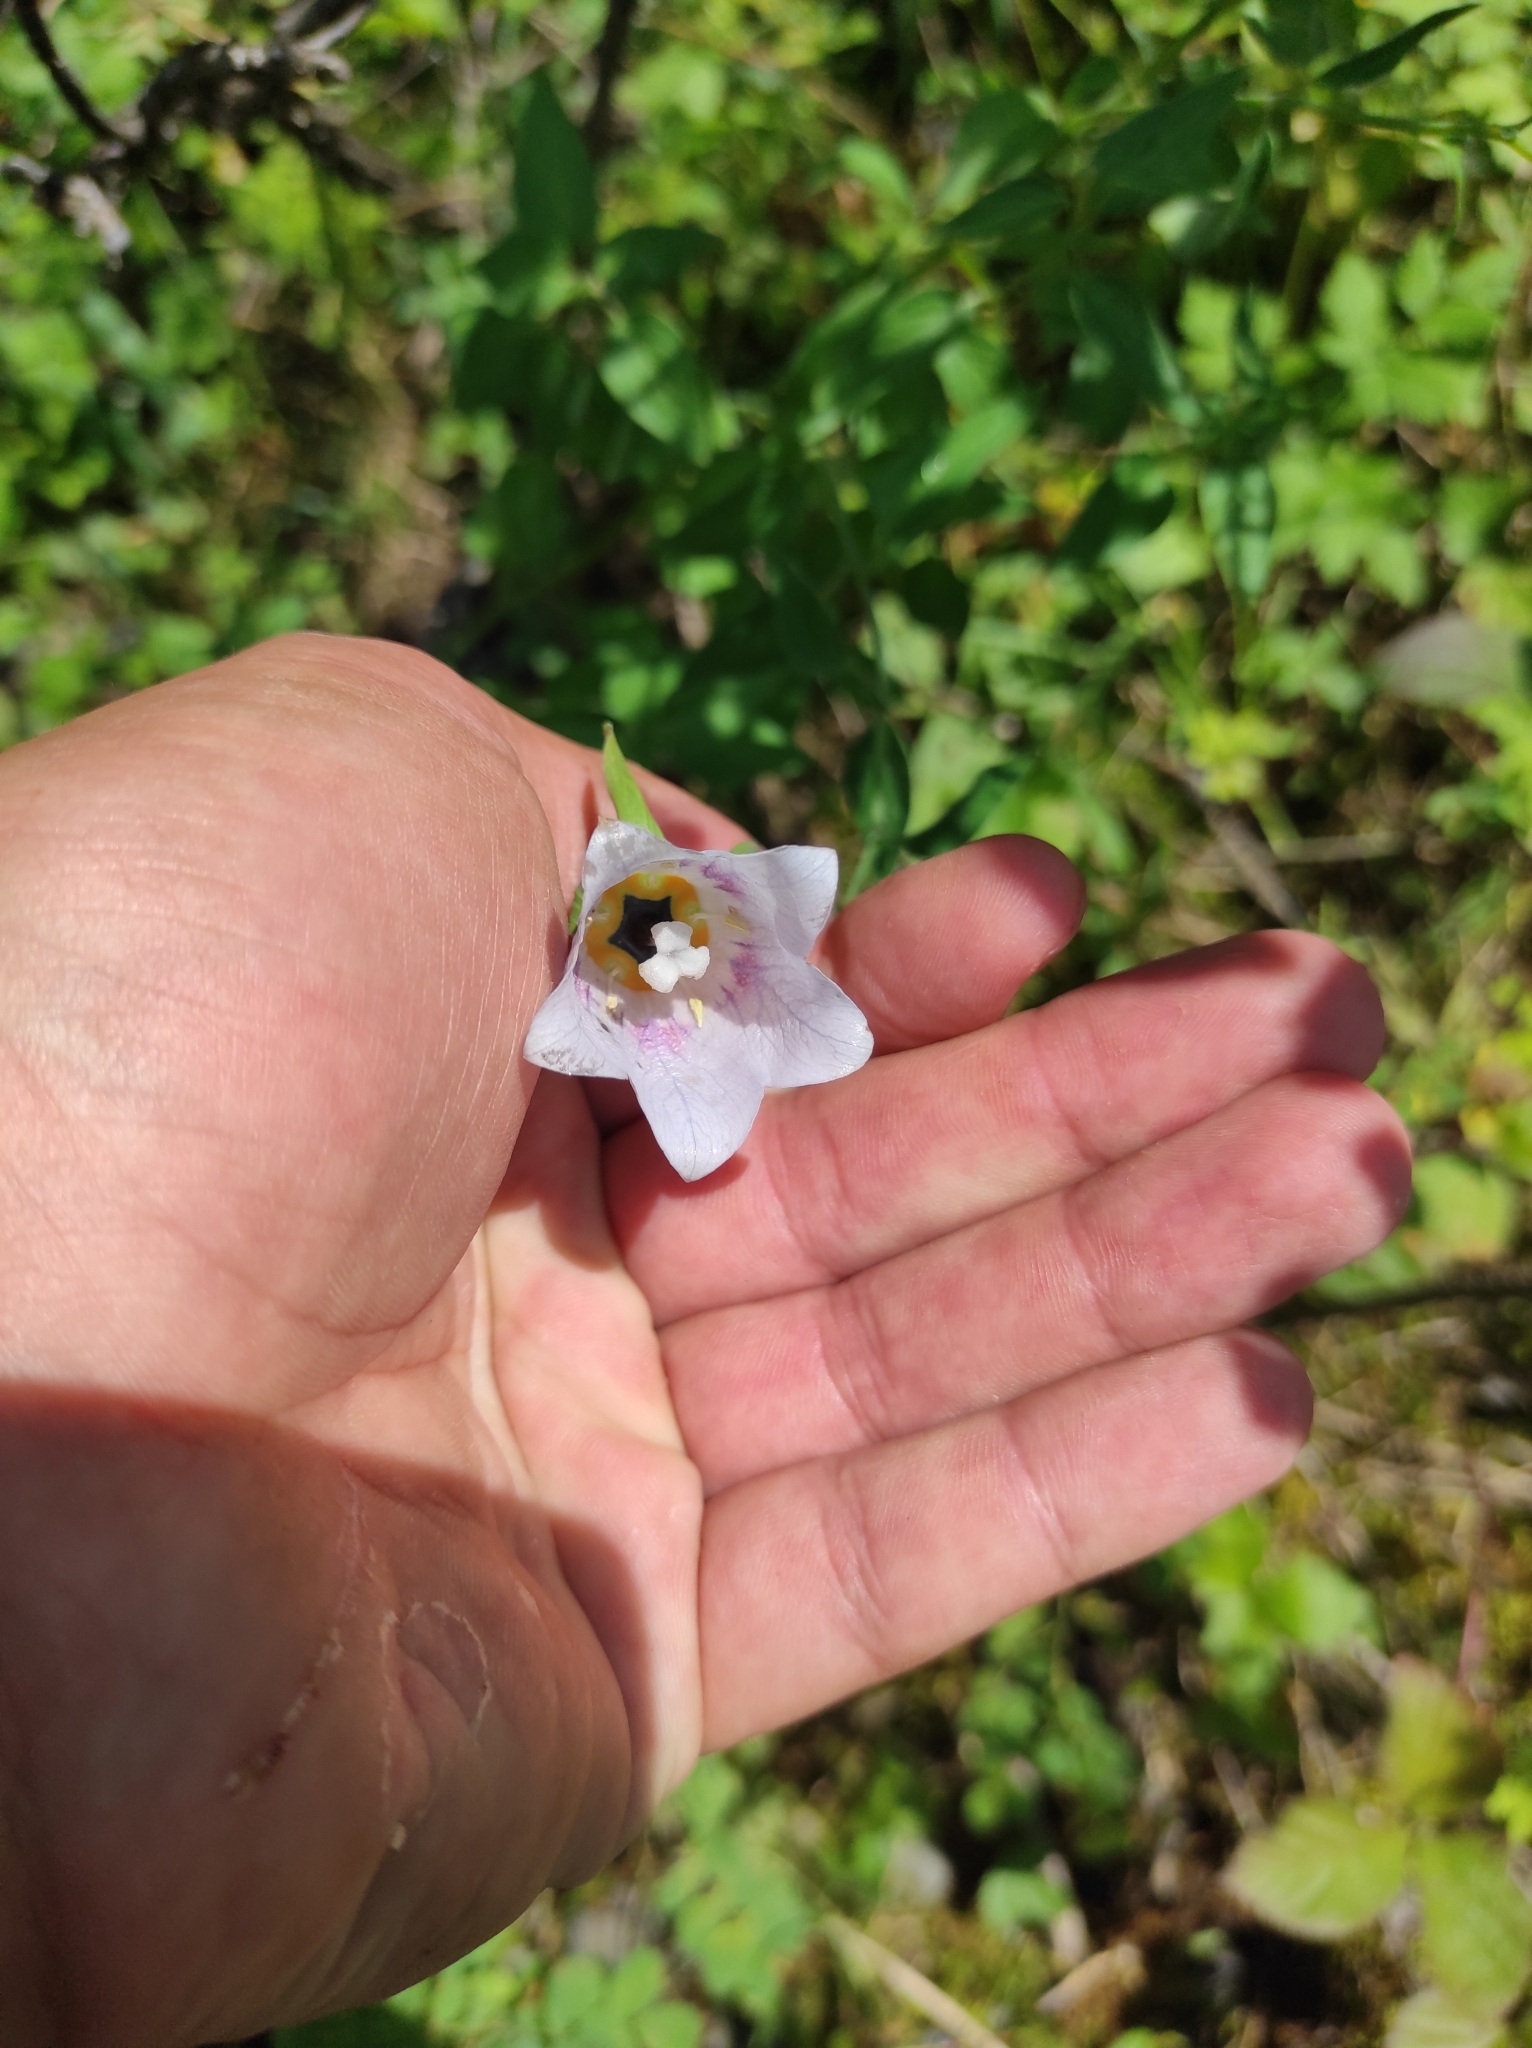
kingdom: Plantae
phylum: Tracheophyta
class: Magnoliopsida
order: Asterales
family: Campanulaceae
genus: Codonopsis
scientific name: Codonopsis clematidea
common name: Bonnet-bellflower
